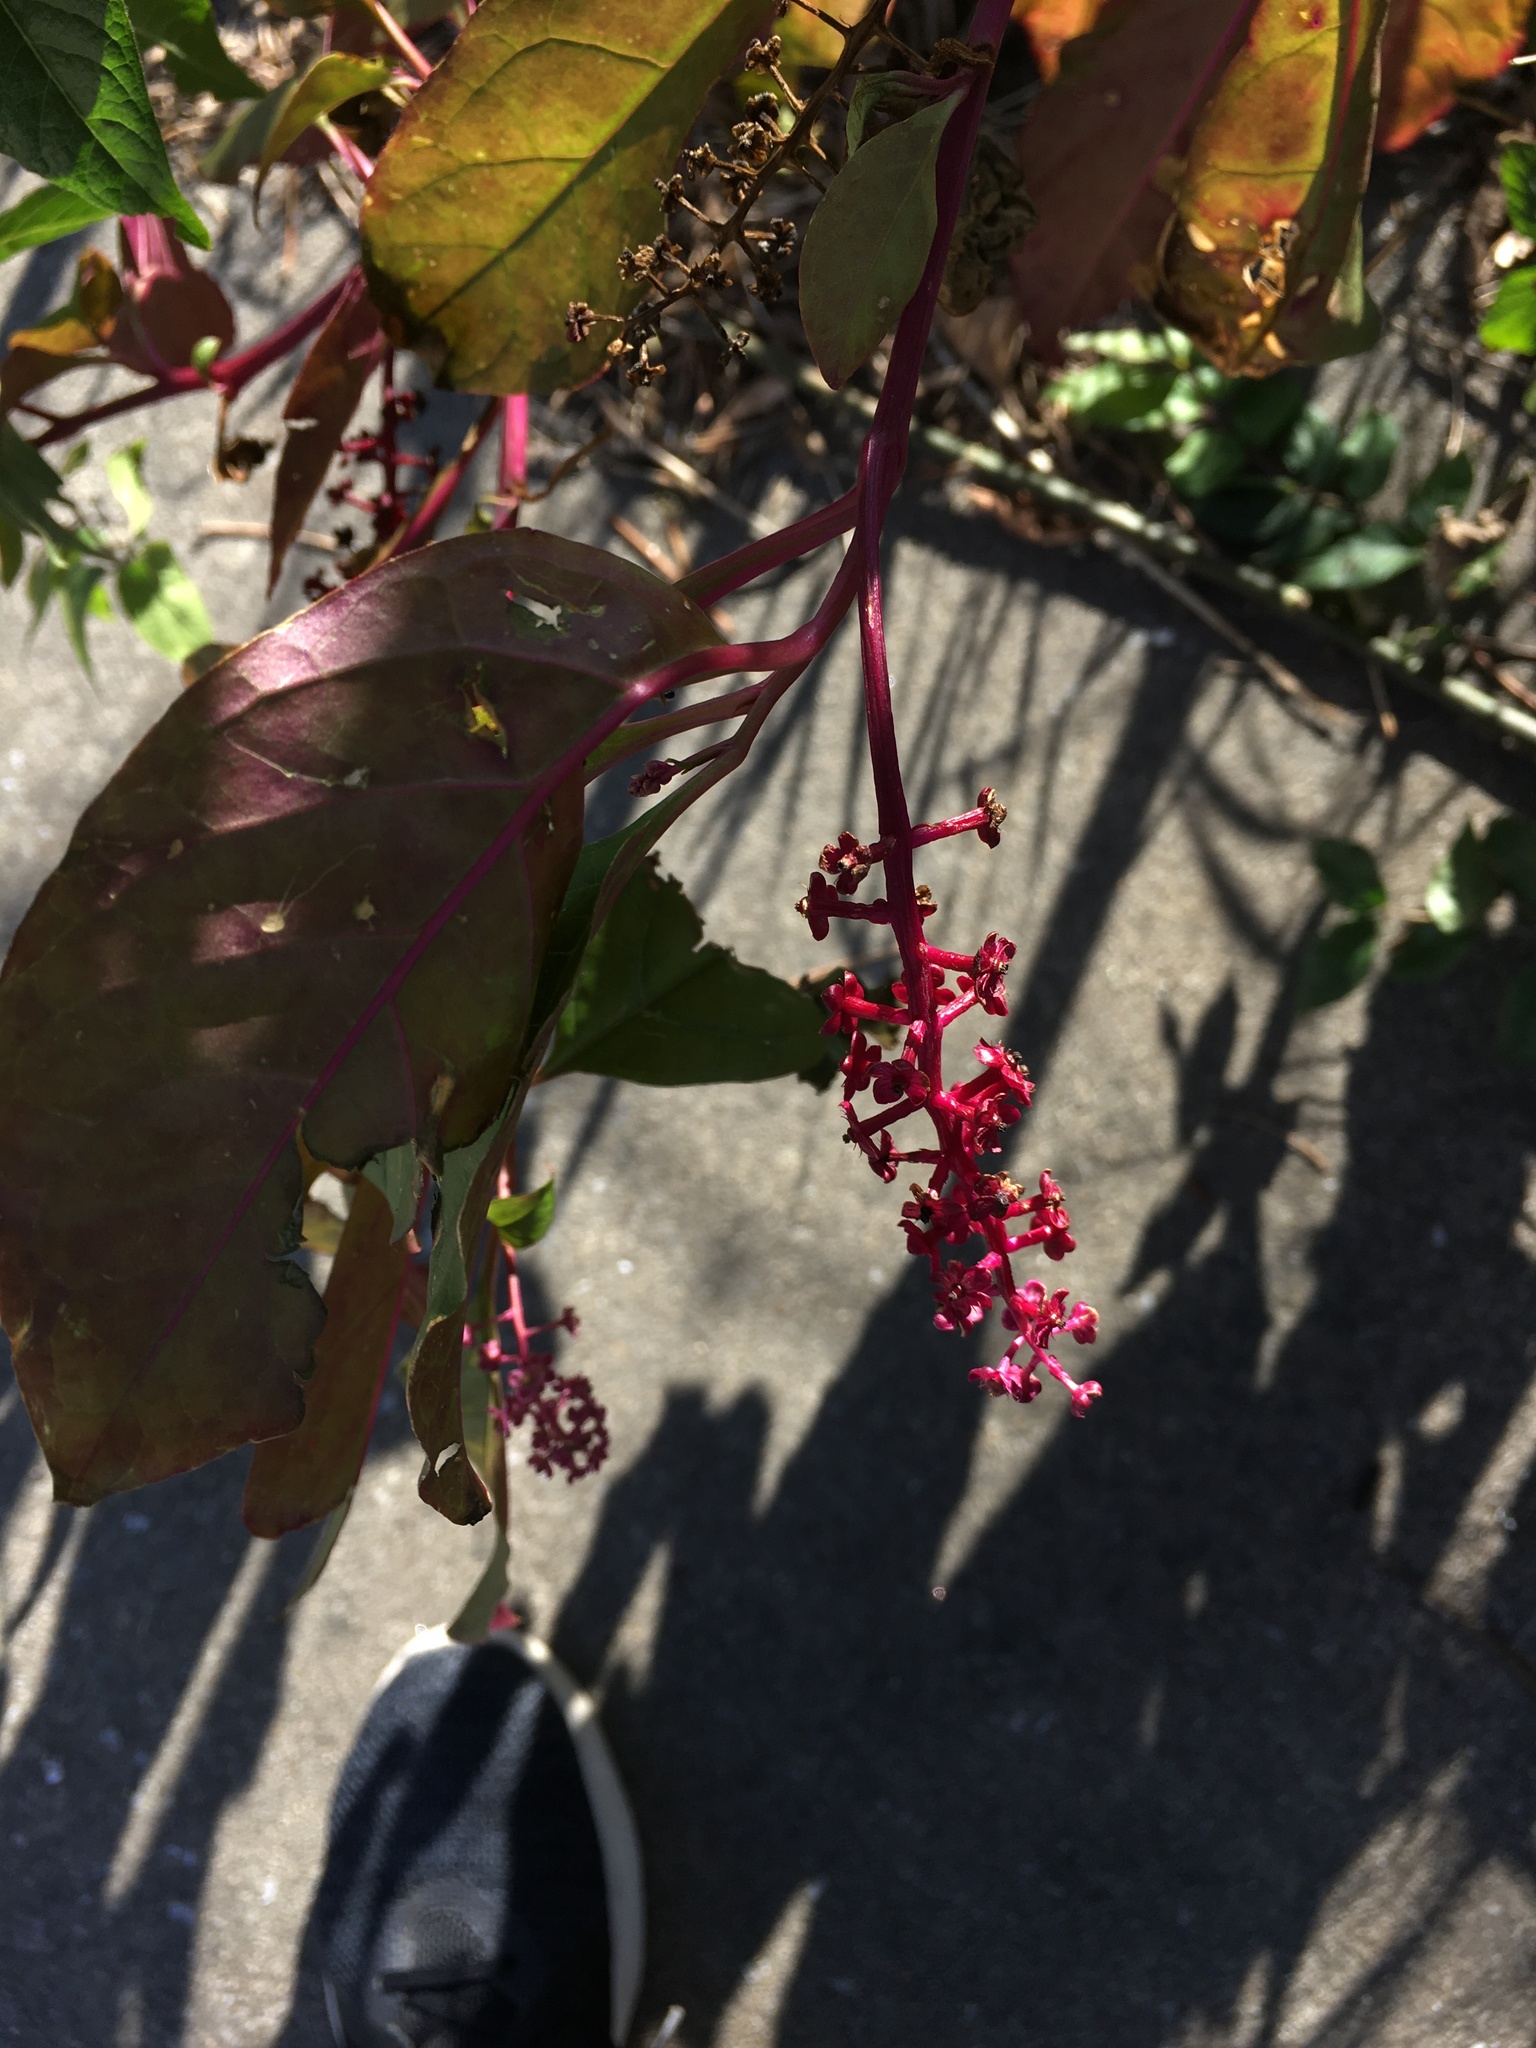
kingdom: Plantae
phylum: Tracheophyta
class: Magnoliopsida
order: Caryophyllales
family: Phytolaccaceae
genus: Phytolacca
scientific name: Phytolacca americana
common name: American pokeweed
